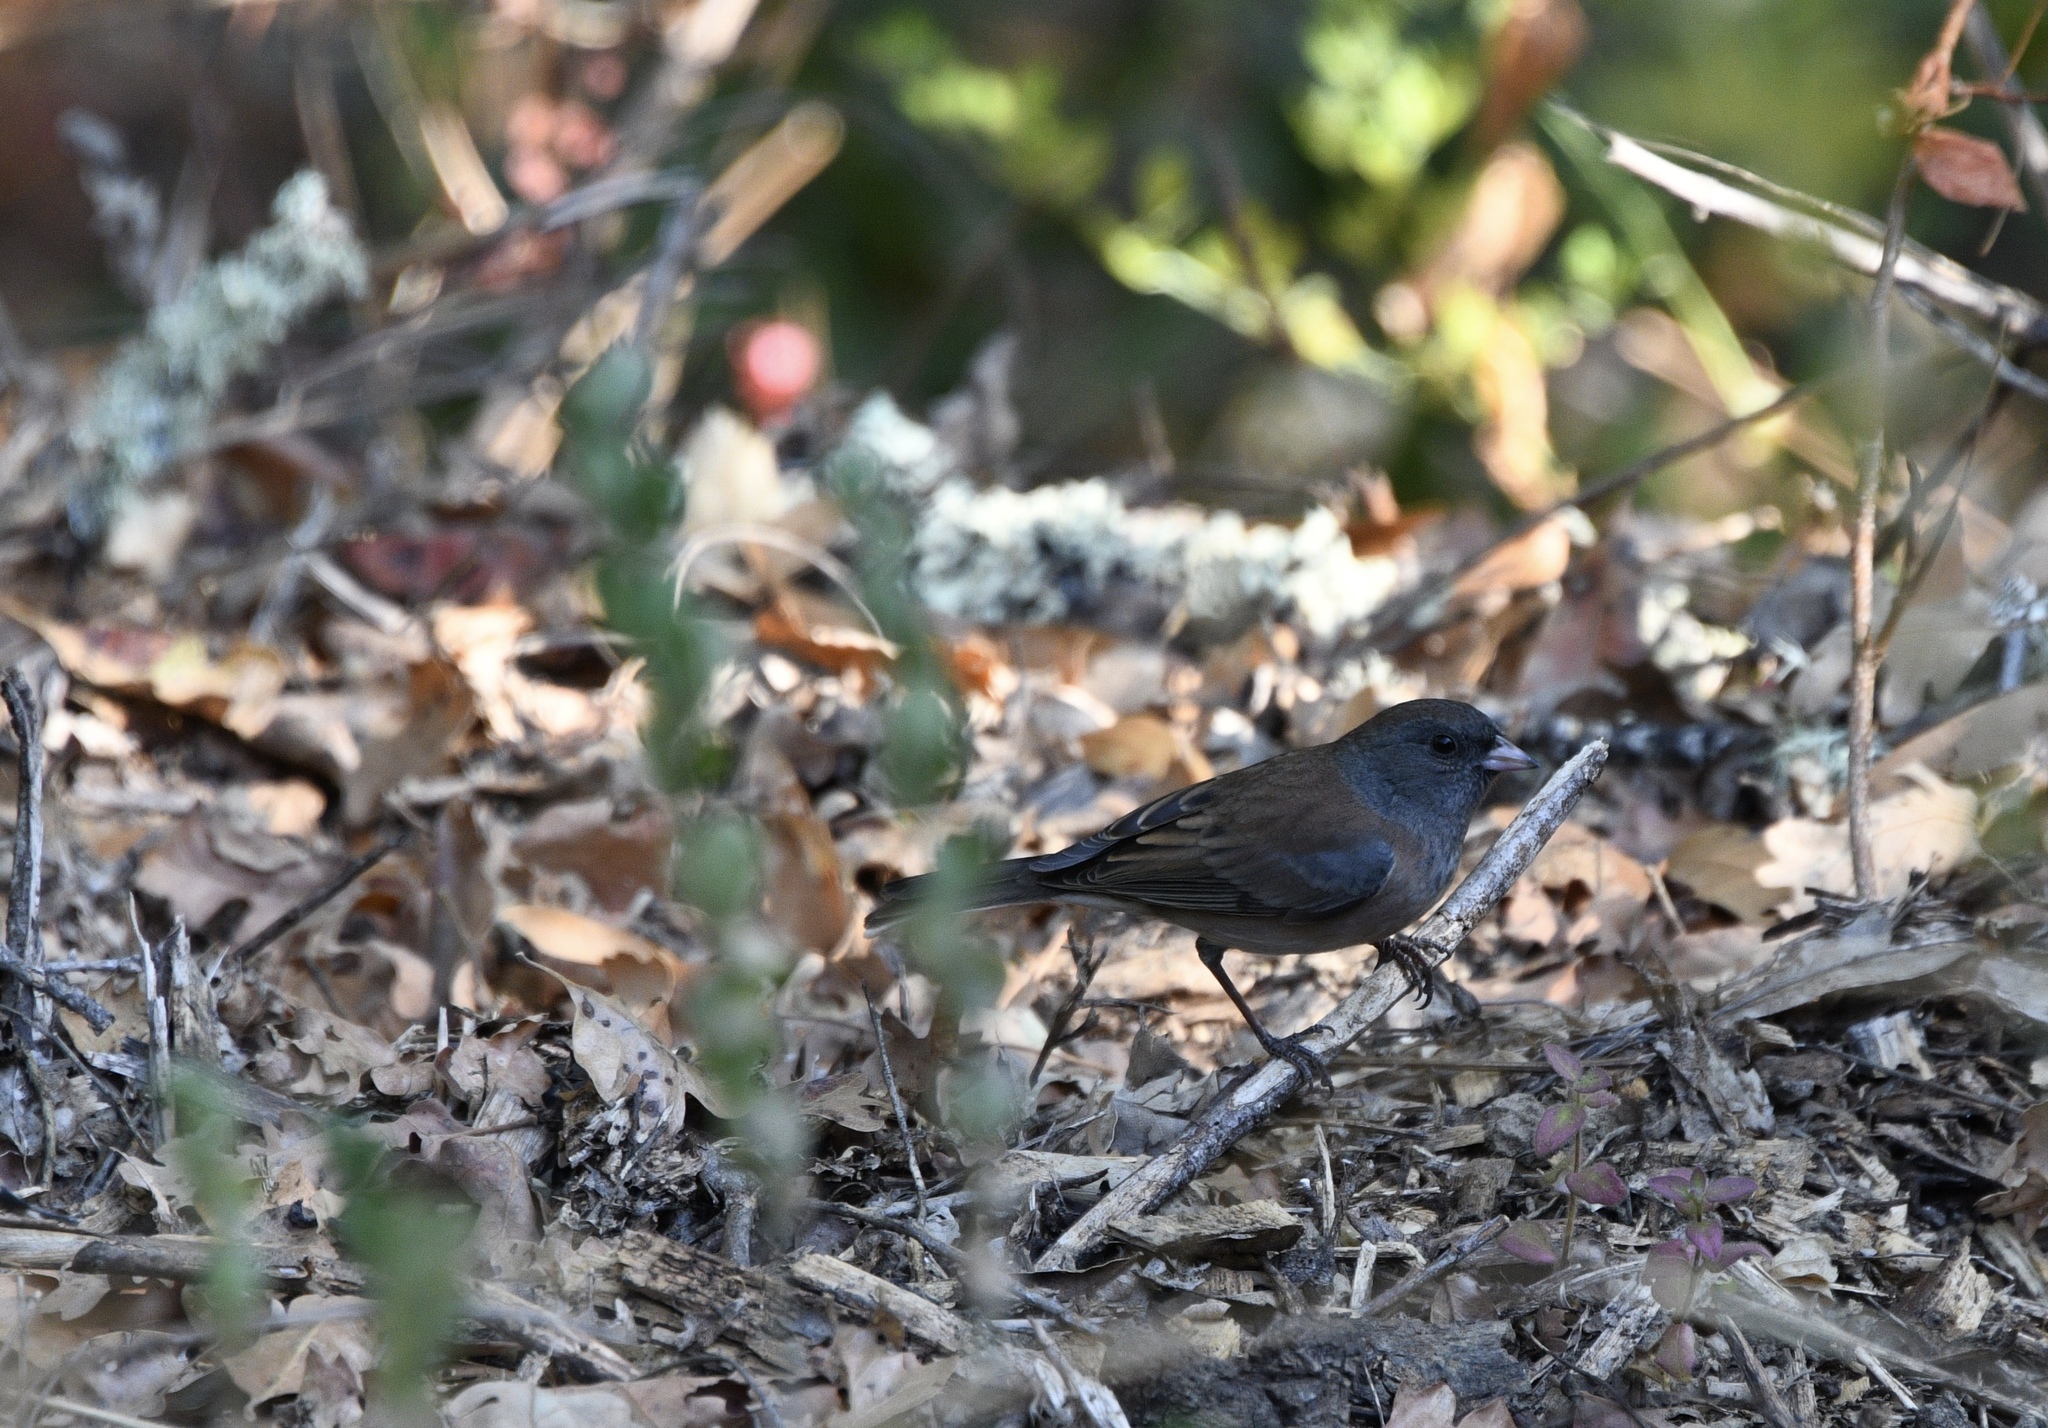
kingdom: Animalia
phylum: Chordata
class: Aves
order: Passeriformes
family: Passerellidae
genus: Junco
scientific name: Junco hyemalis
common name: Dark-eyed junco
